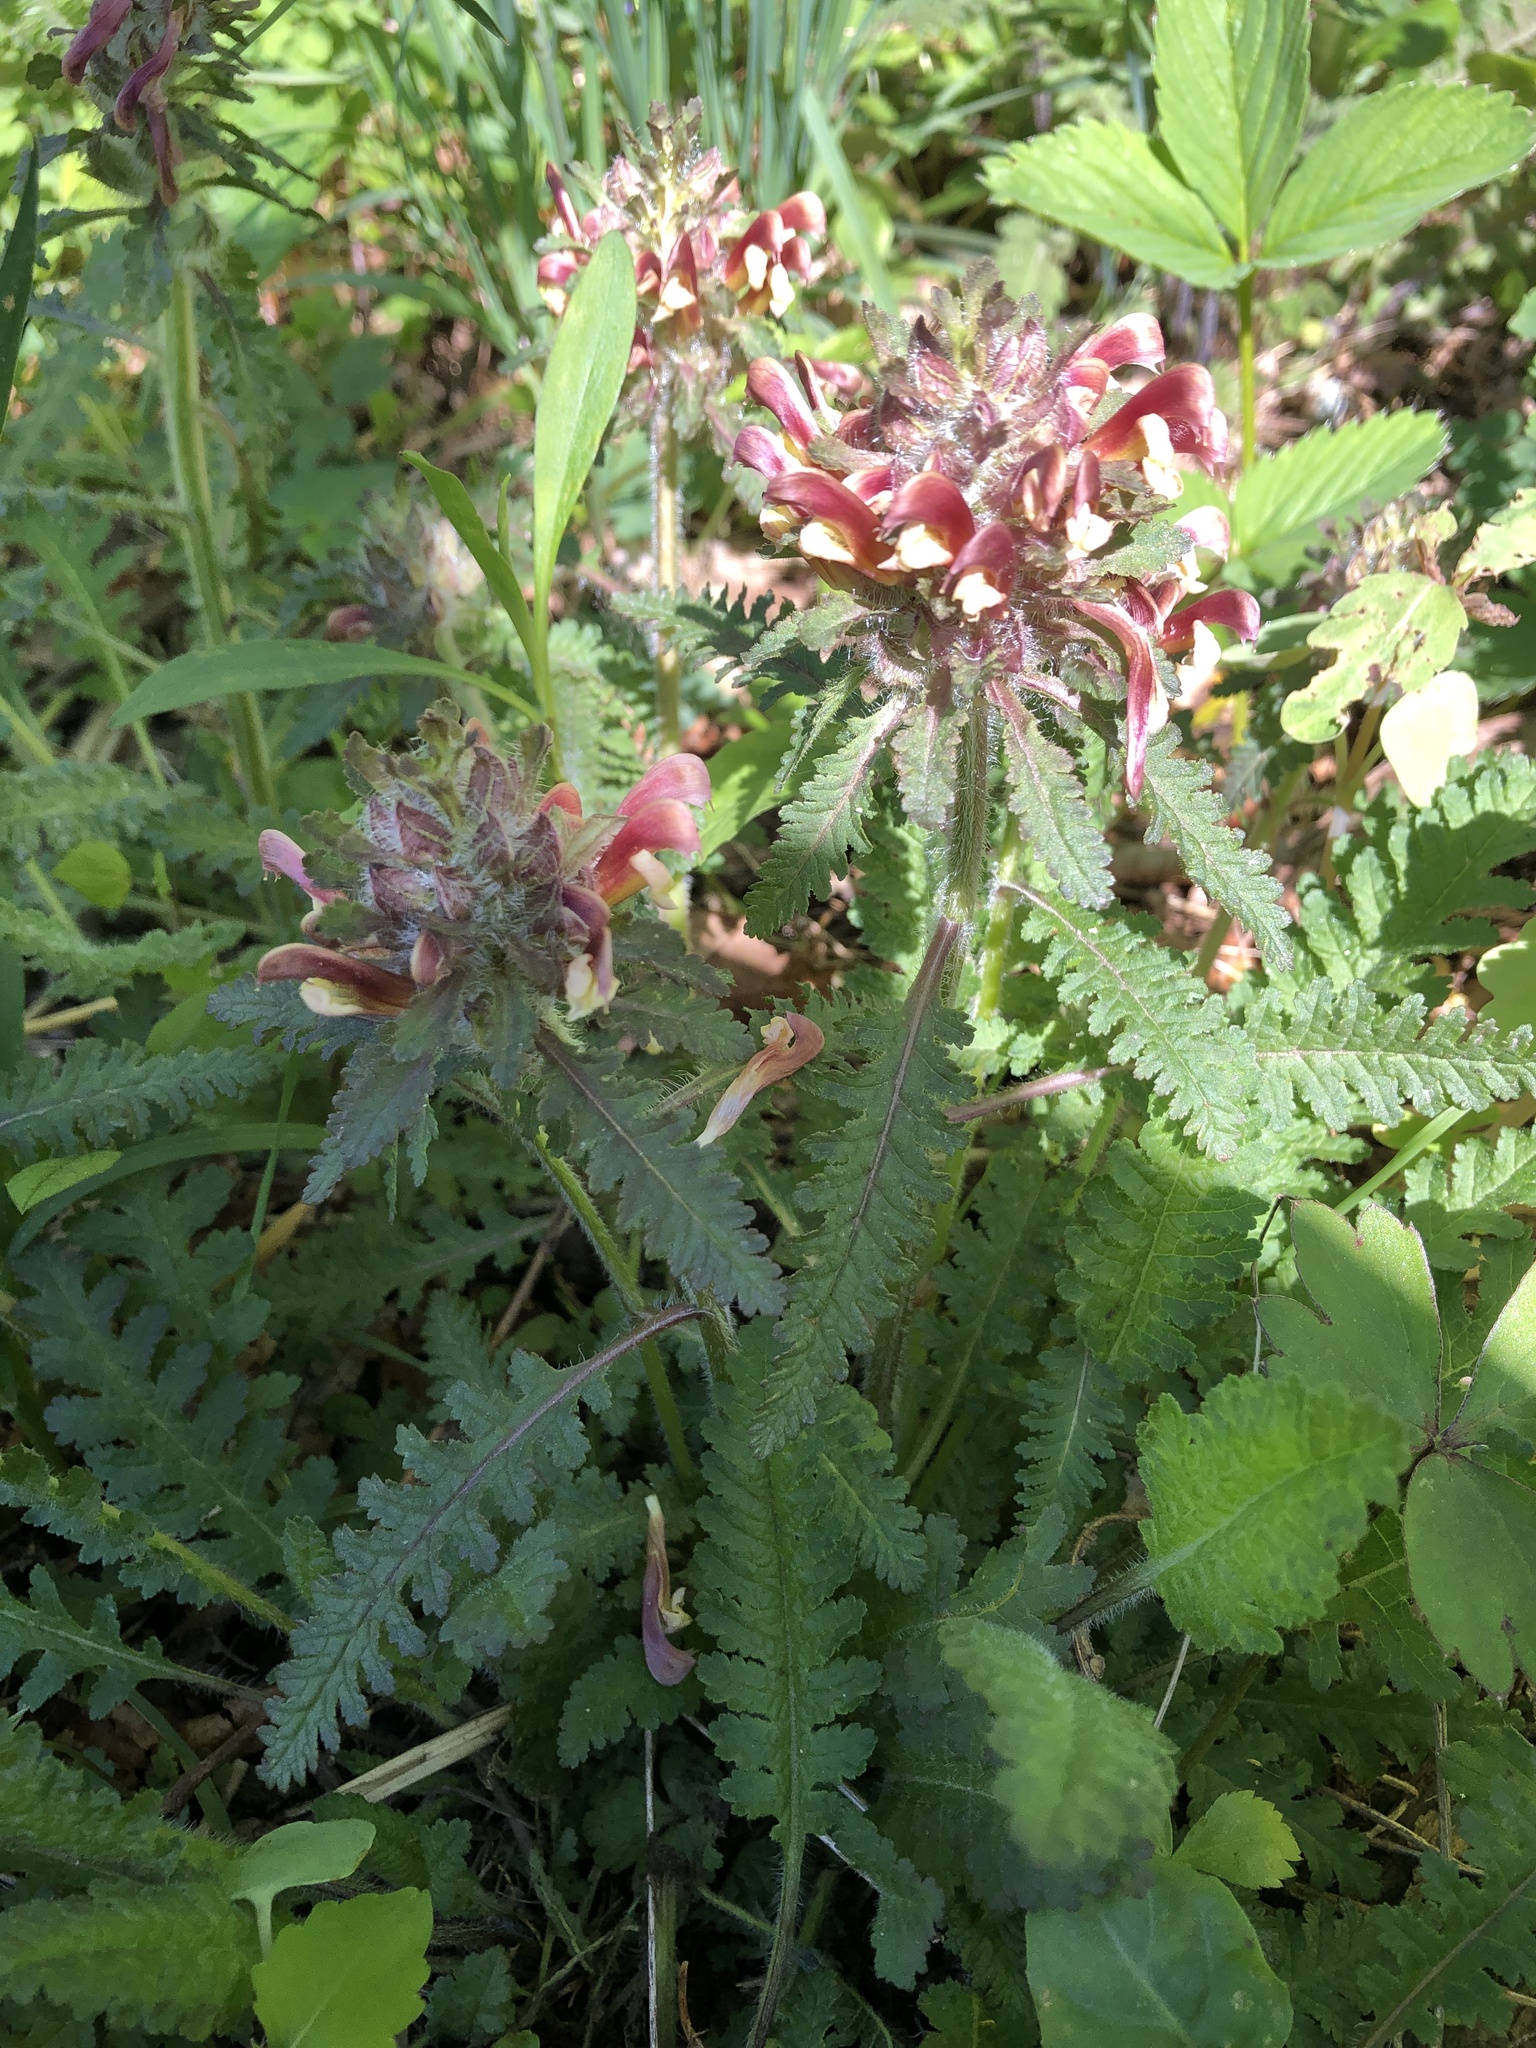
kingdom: Plantae
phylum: Tracheophyta
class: Magnoliopsida
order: Lamiales
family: Orobanchaceae
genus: Pedicularis
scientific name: Pedicularis canadensis
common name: Early lousewort
